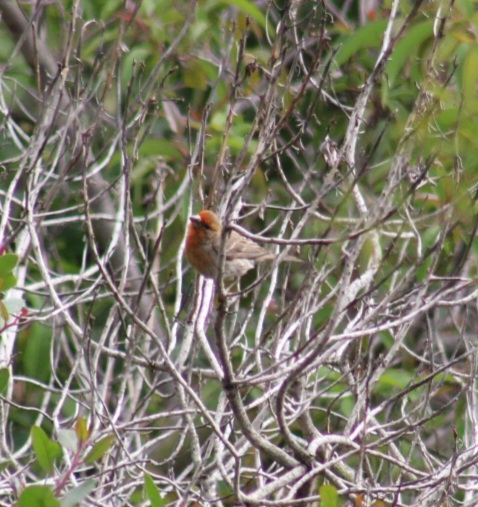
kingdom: Animalia
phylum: Chordata
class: Aves
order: Passeriformes
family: Fringillidae
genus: Haemorhous
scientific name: Haemorhous mexicanus
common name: House finch
